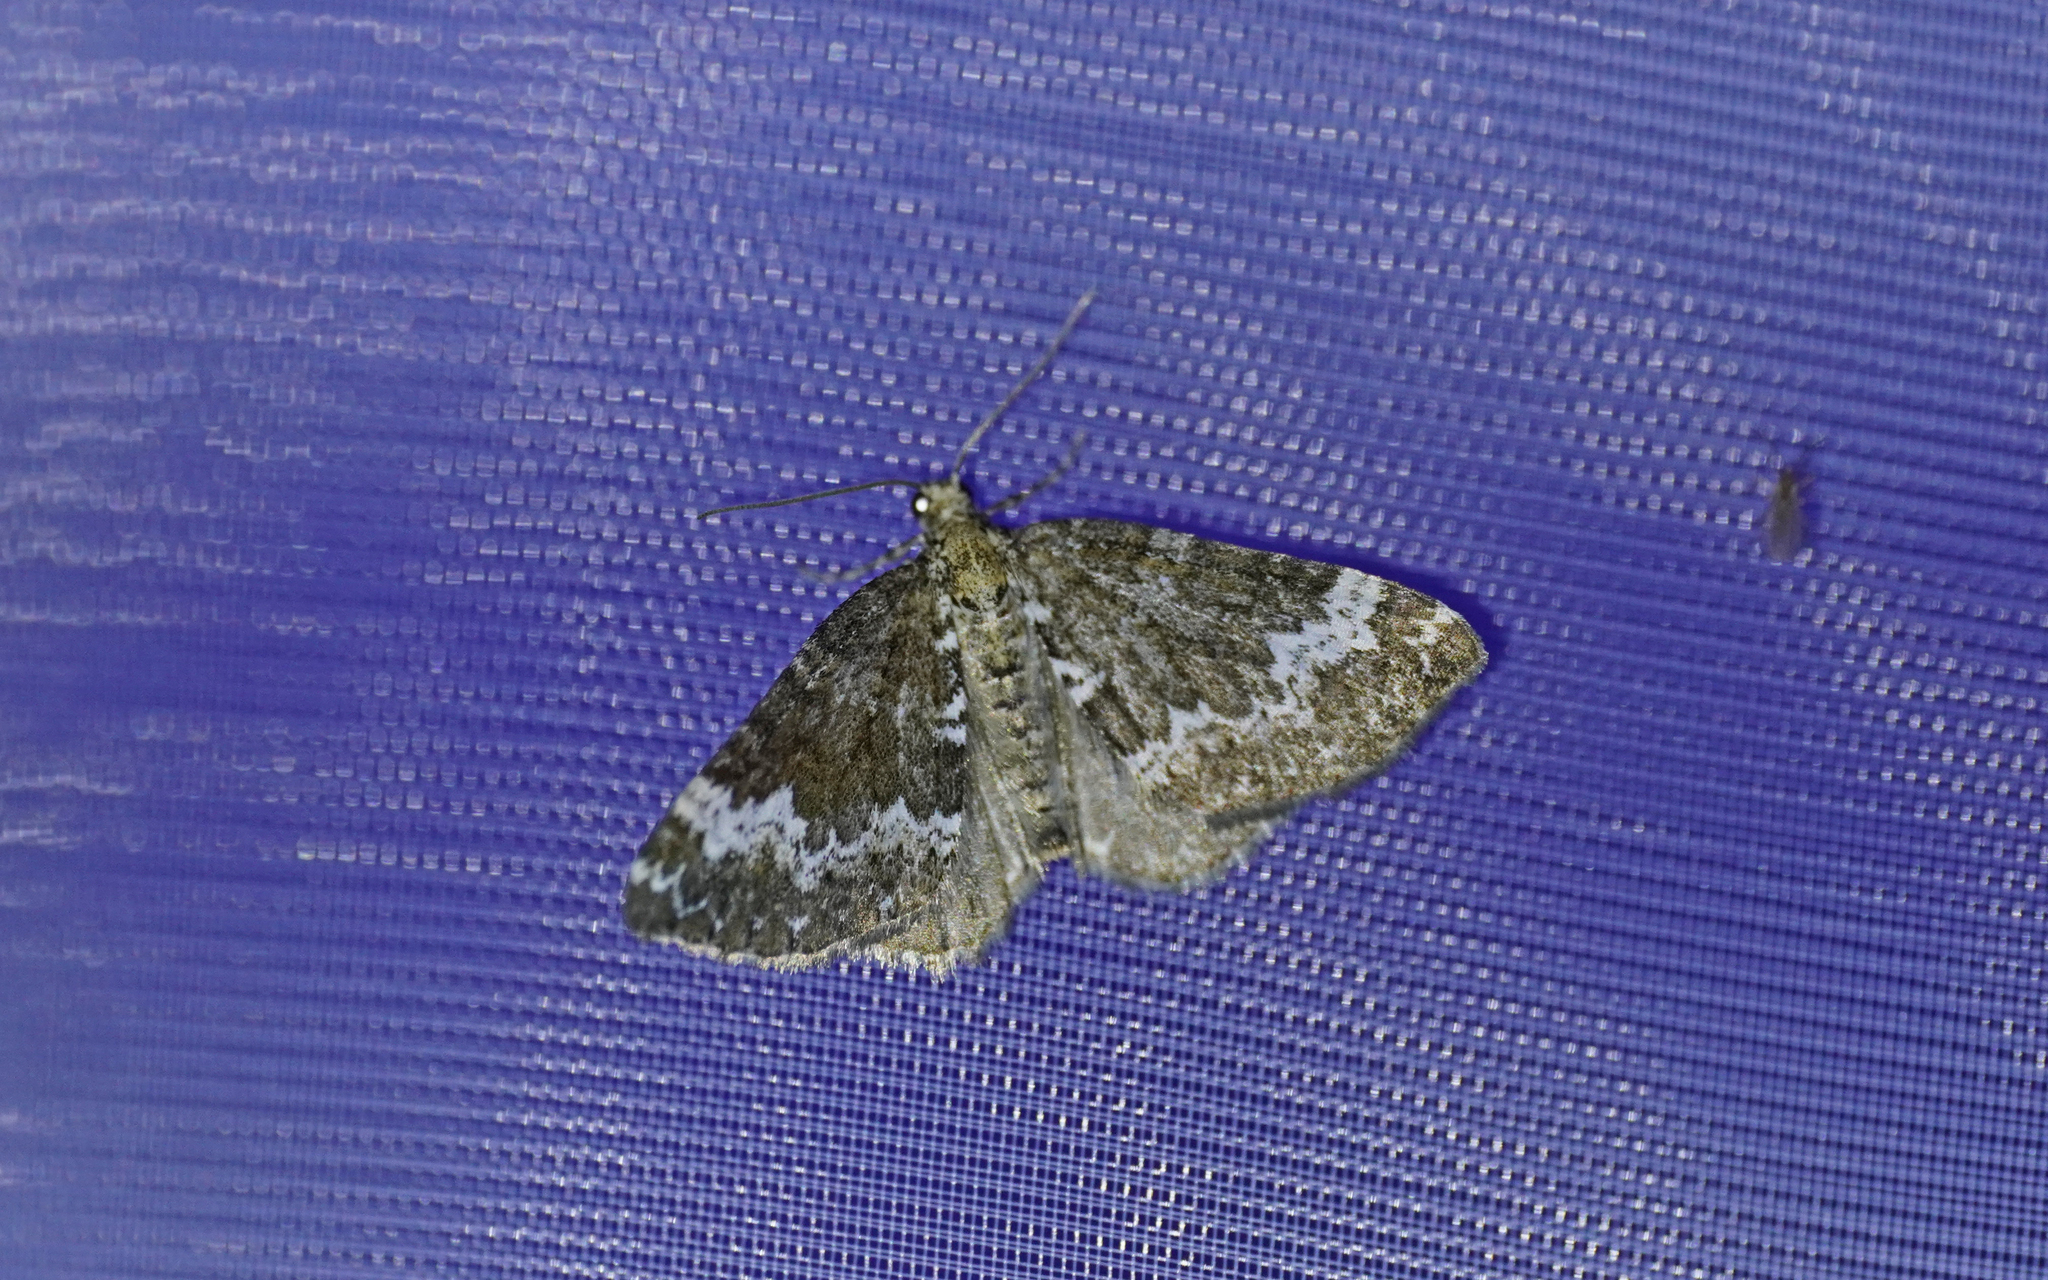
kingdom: Animalia
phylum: Arthropoda
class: Insecta
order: Lepidoptera
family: Geometridae
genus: Perizoma
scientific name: Perizoma alchemillata
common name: Small rivulet
